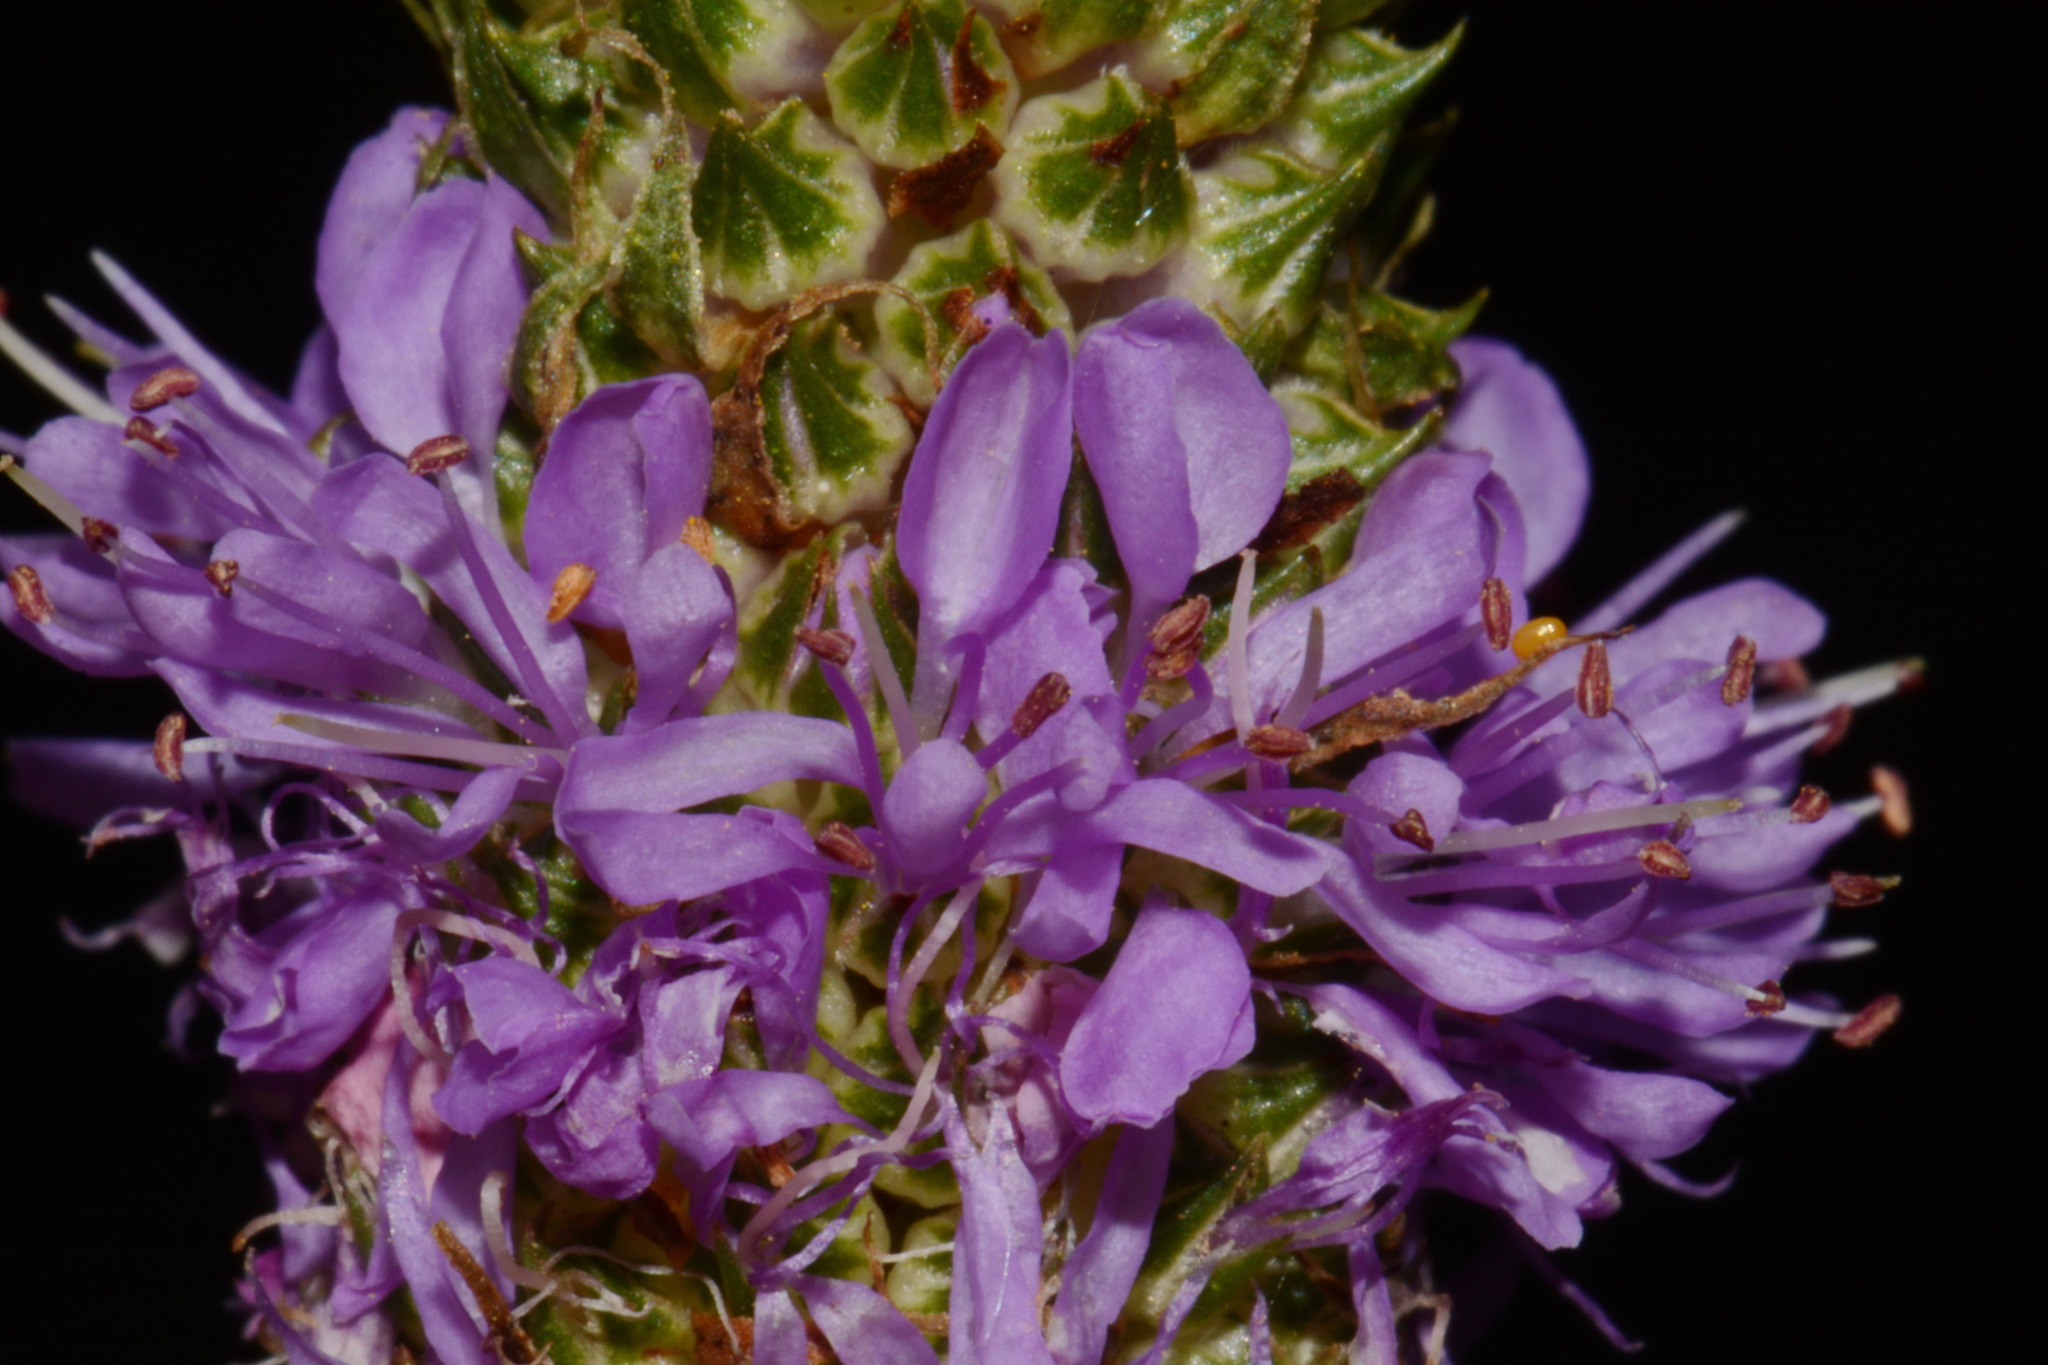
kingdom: Plantae
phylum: Tracheophyta
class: Magnoliopsida
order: Fabales
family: Fabaceae
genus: Dalea
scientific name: Dalea foliosa
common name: Leafy prairie-clover
